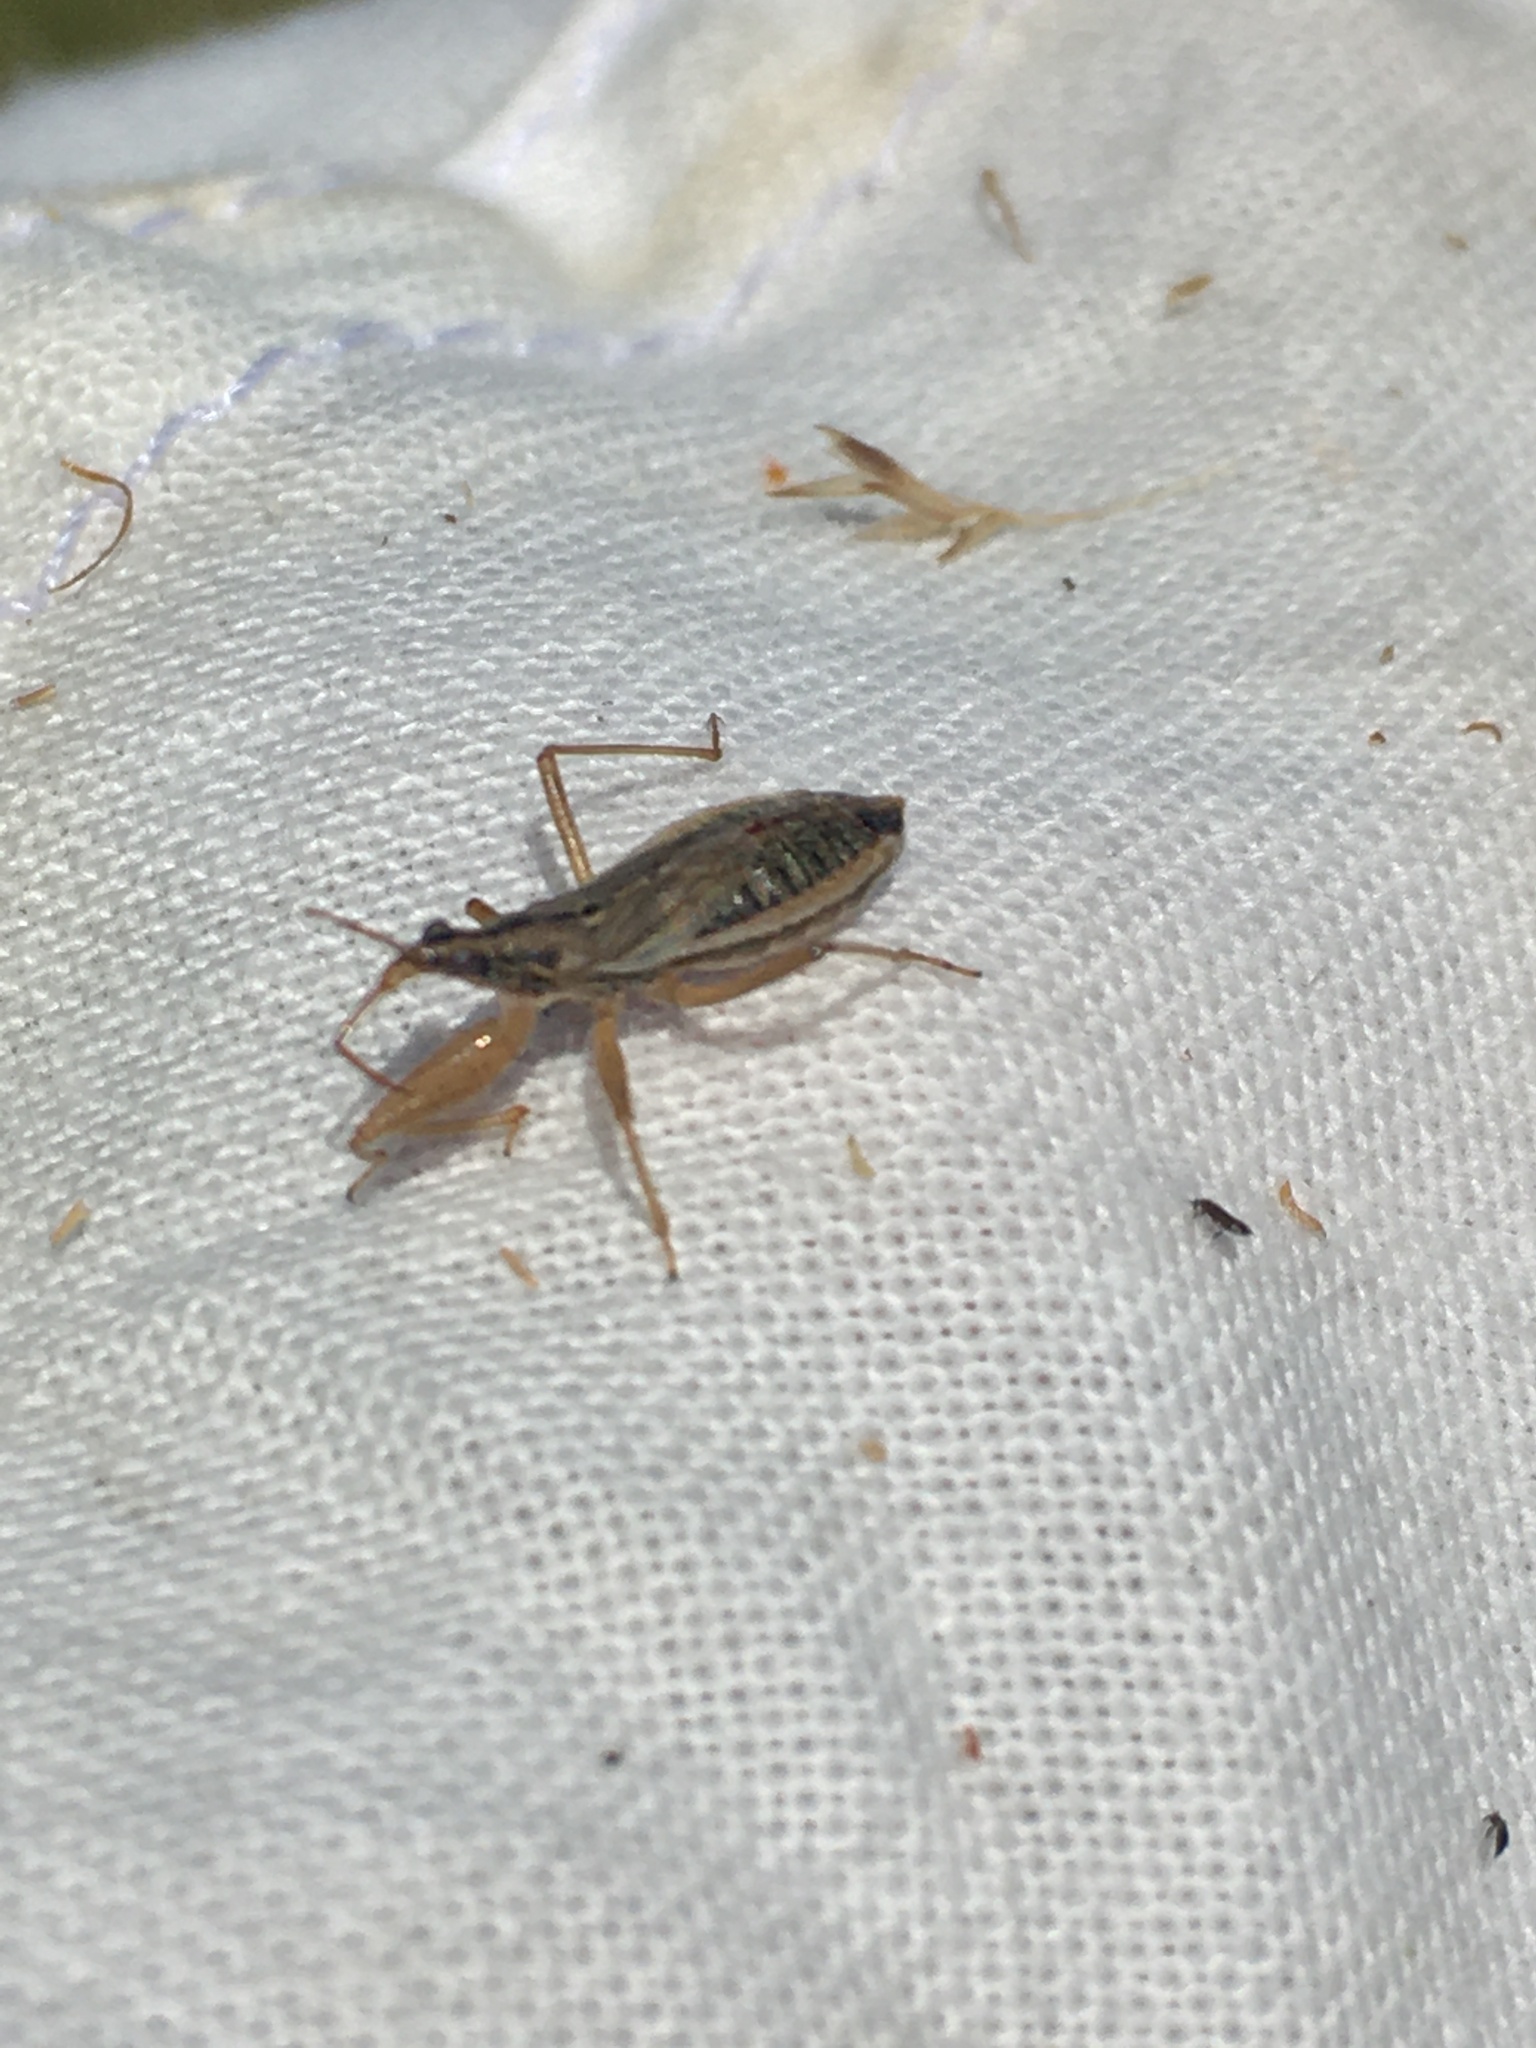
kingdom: Animalia
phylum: Arthropoda
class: Insecta
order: Hemiptera
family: Nabidae
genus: Nabis
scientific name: Nabis flavomarginatus
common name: Broad damselbug
